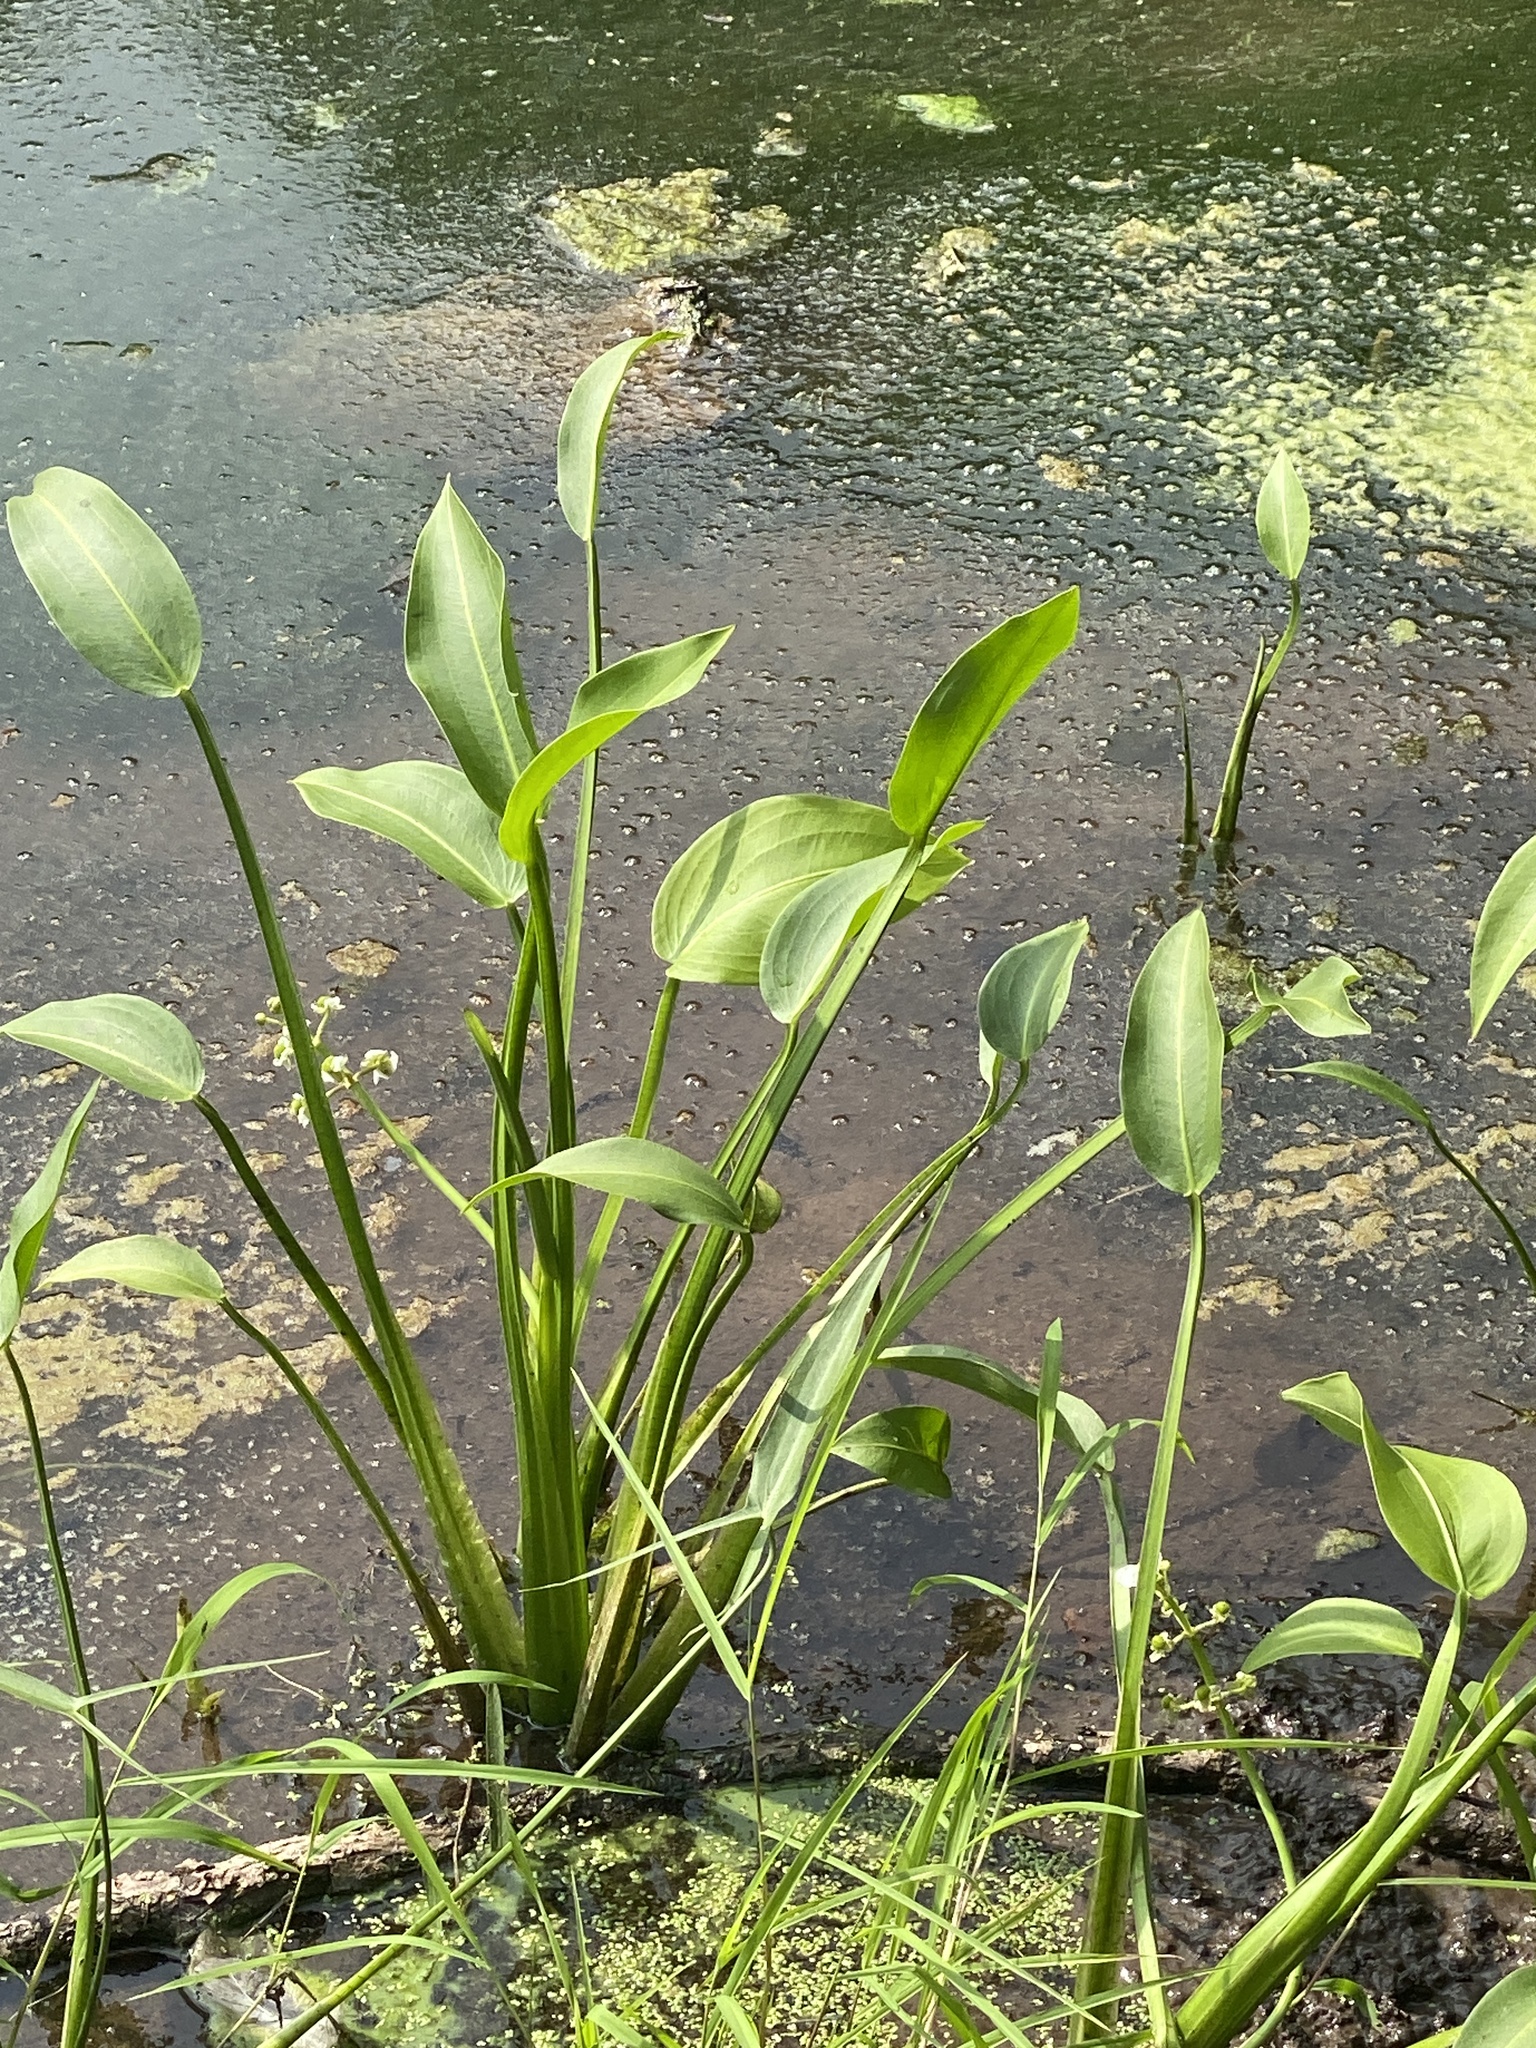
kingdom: Plantae
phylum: Tracheophyta
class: Liliopsida
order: Alismatales
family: Alismataceae
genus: Sagittaria
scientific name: Sagittaria platyphylla
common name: Broad-leaf arrowhead
